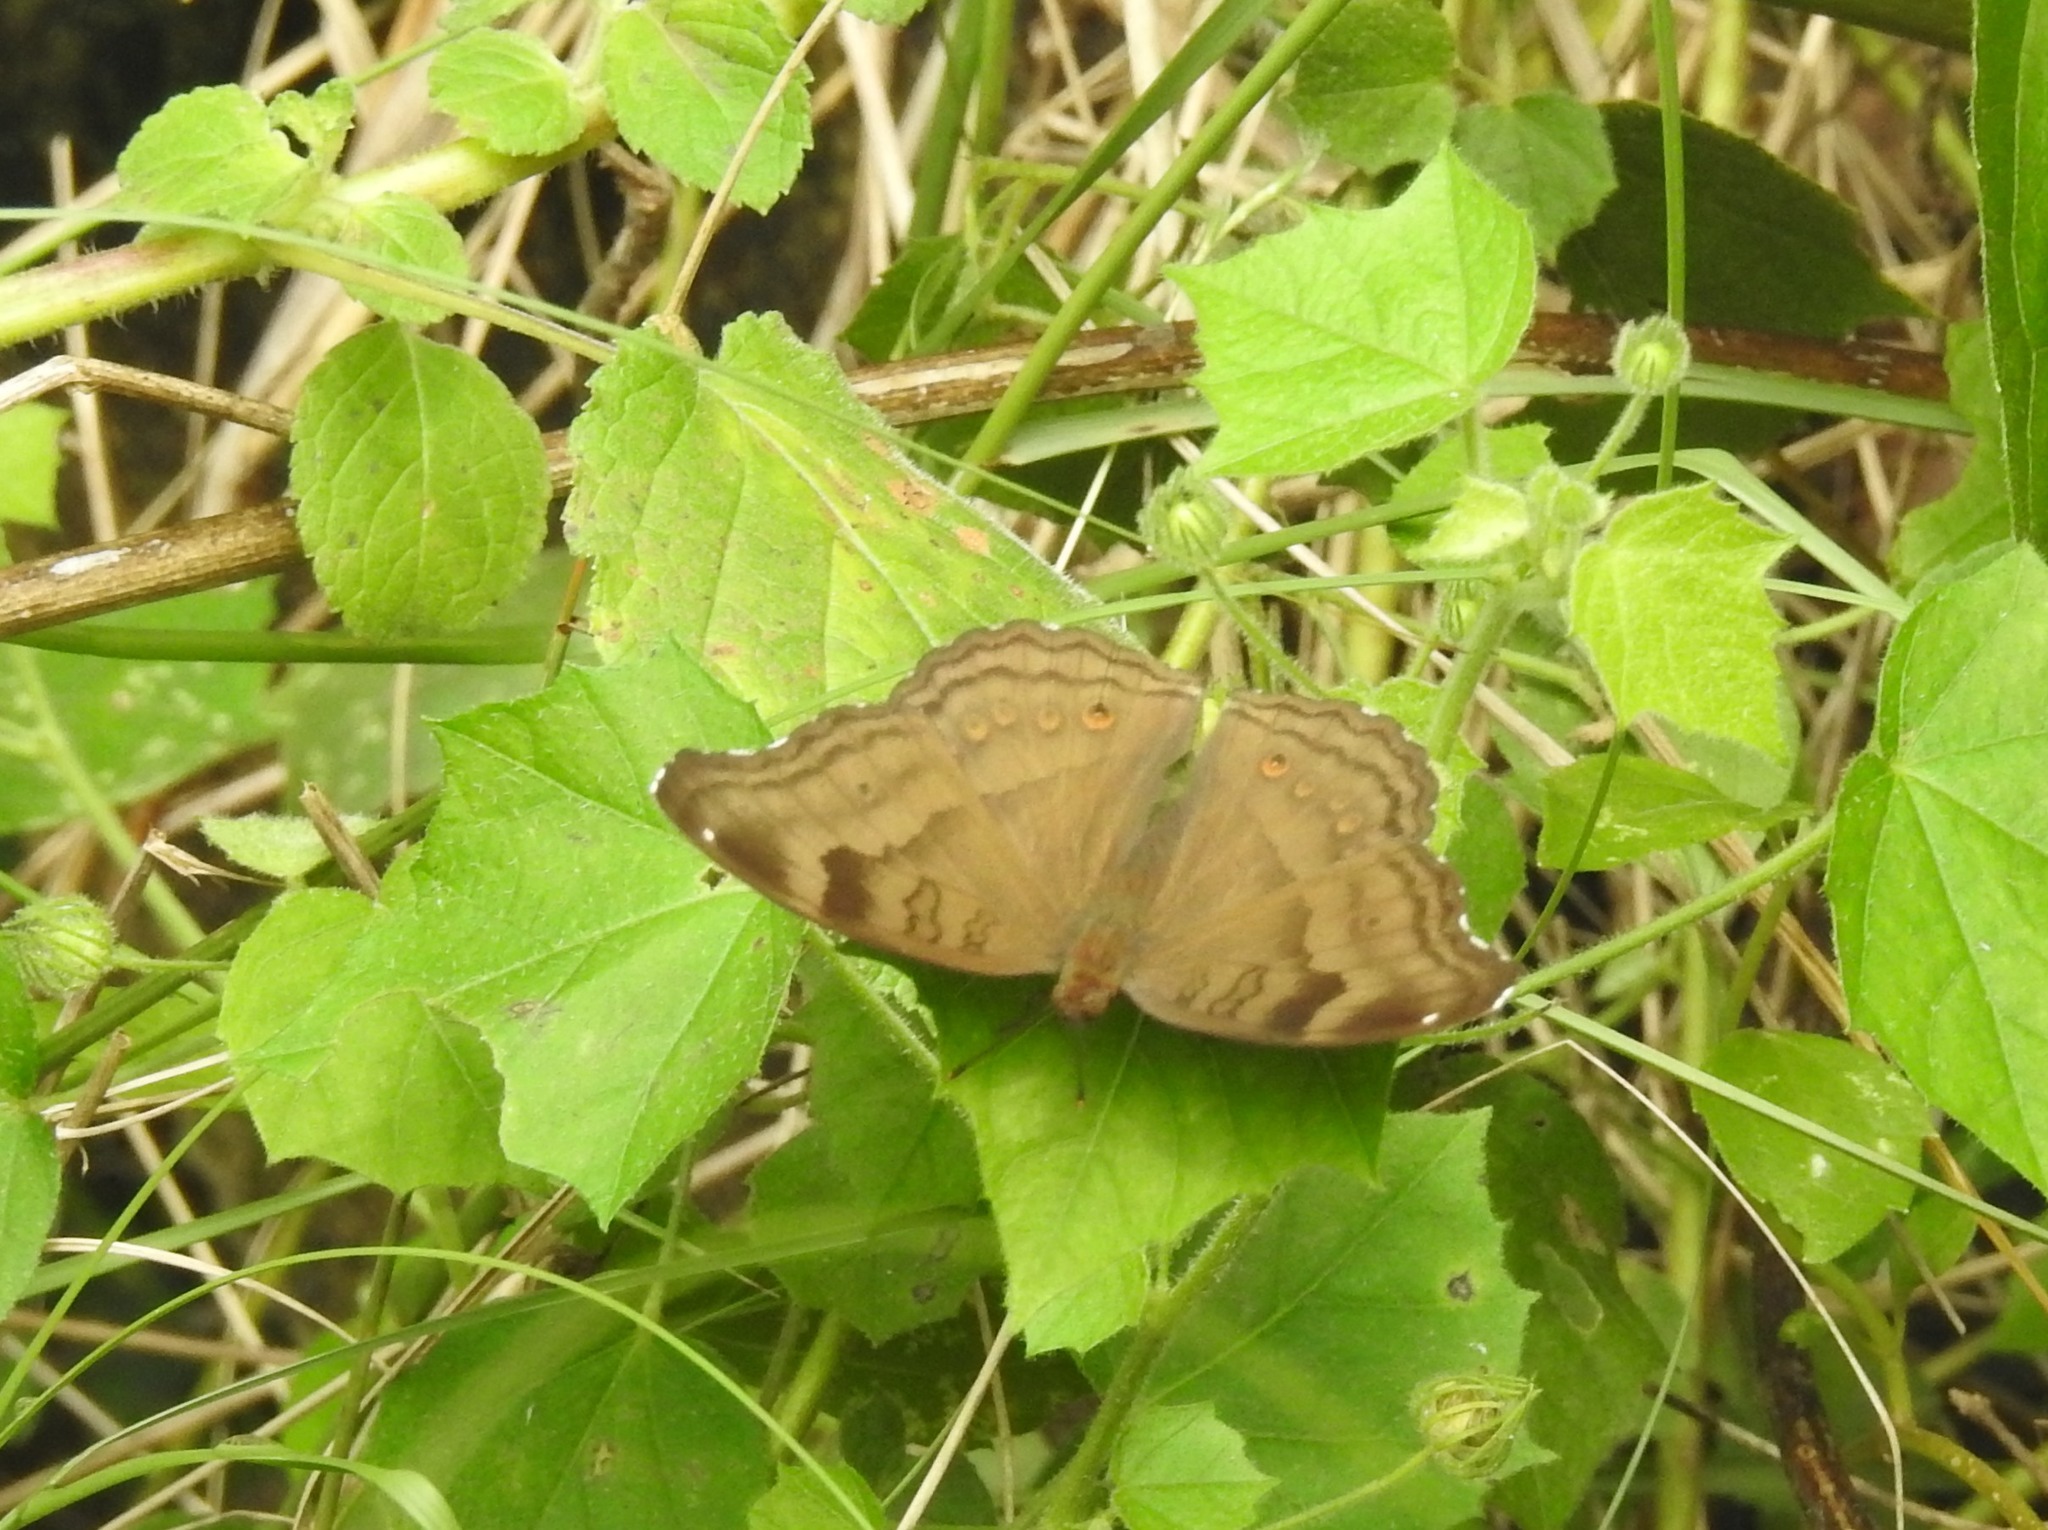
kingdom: Animalia
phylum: Arthropoda
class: Insecta
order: Lepidoptera
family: Nymphalidae
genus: Junonia
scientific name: Junonia iphita
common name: Chocolate pansy
